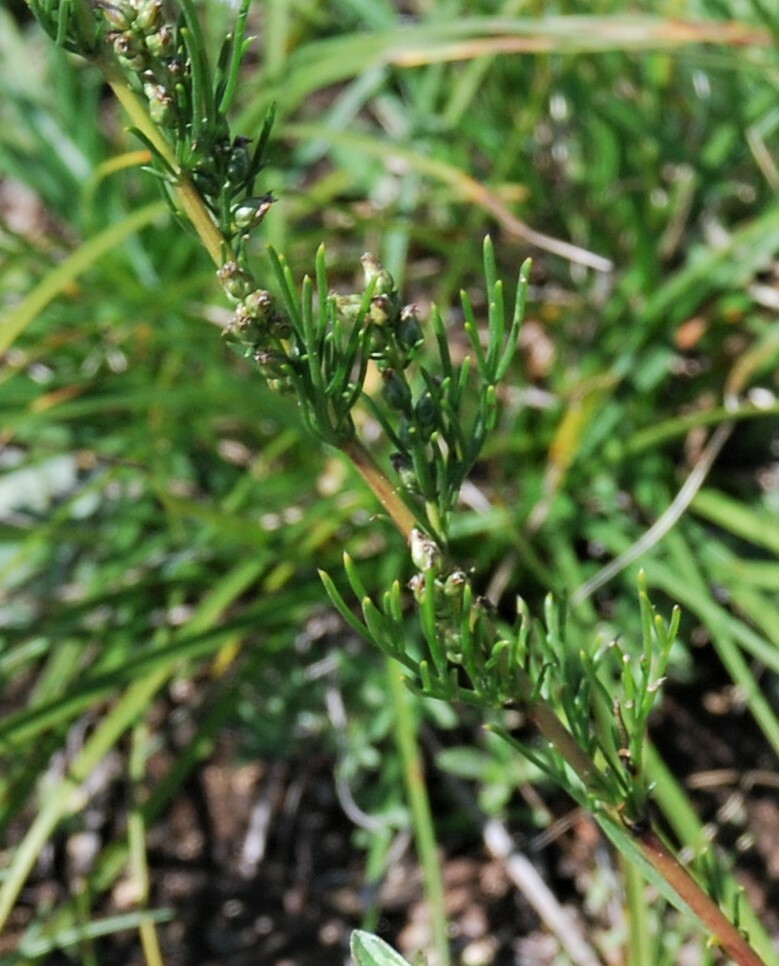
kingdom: Plantae
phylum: Tracheophyta
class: Magnoliopsida
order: Asterales
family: Asteraceae
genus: Artemisia
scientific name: Artemisia pubescens
